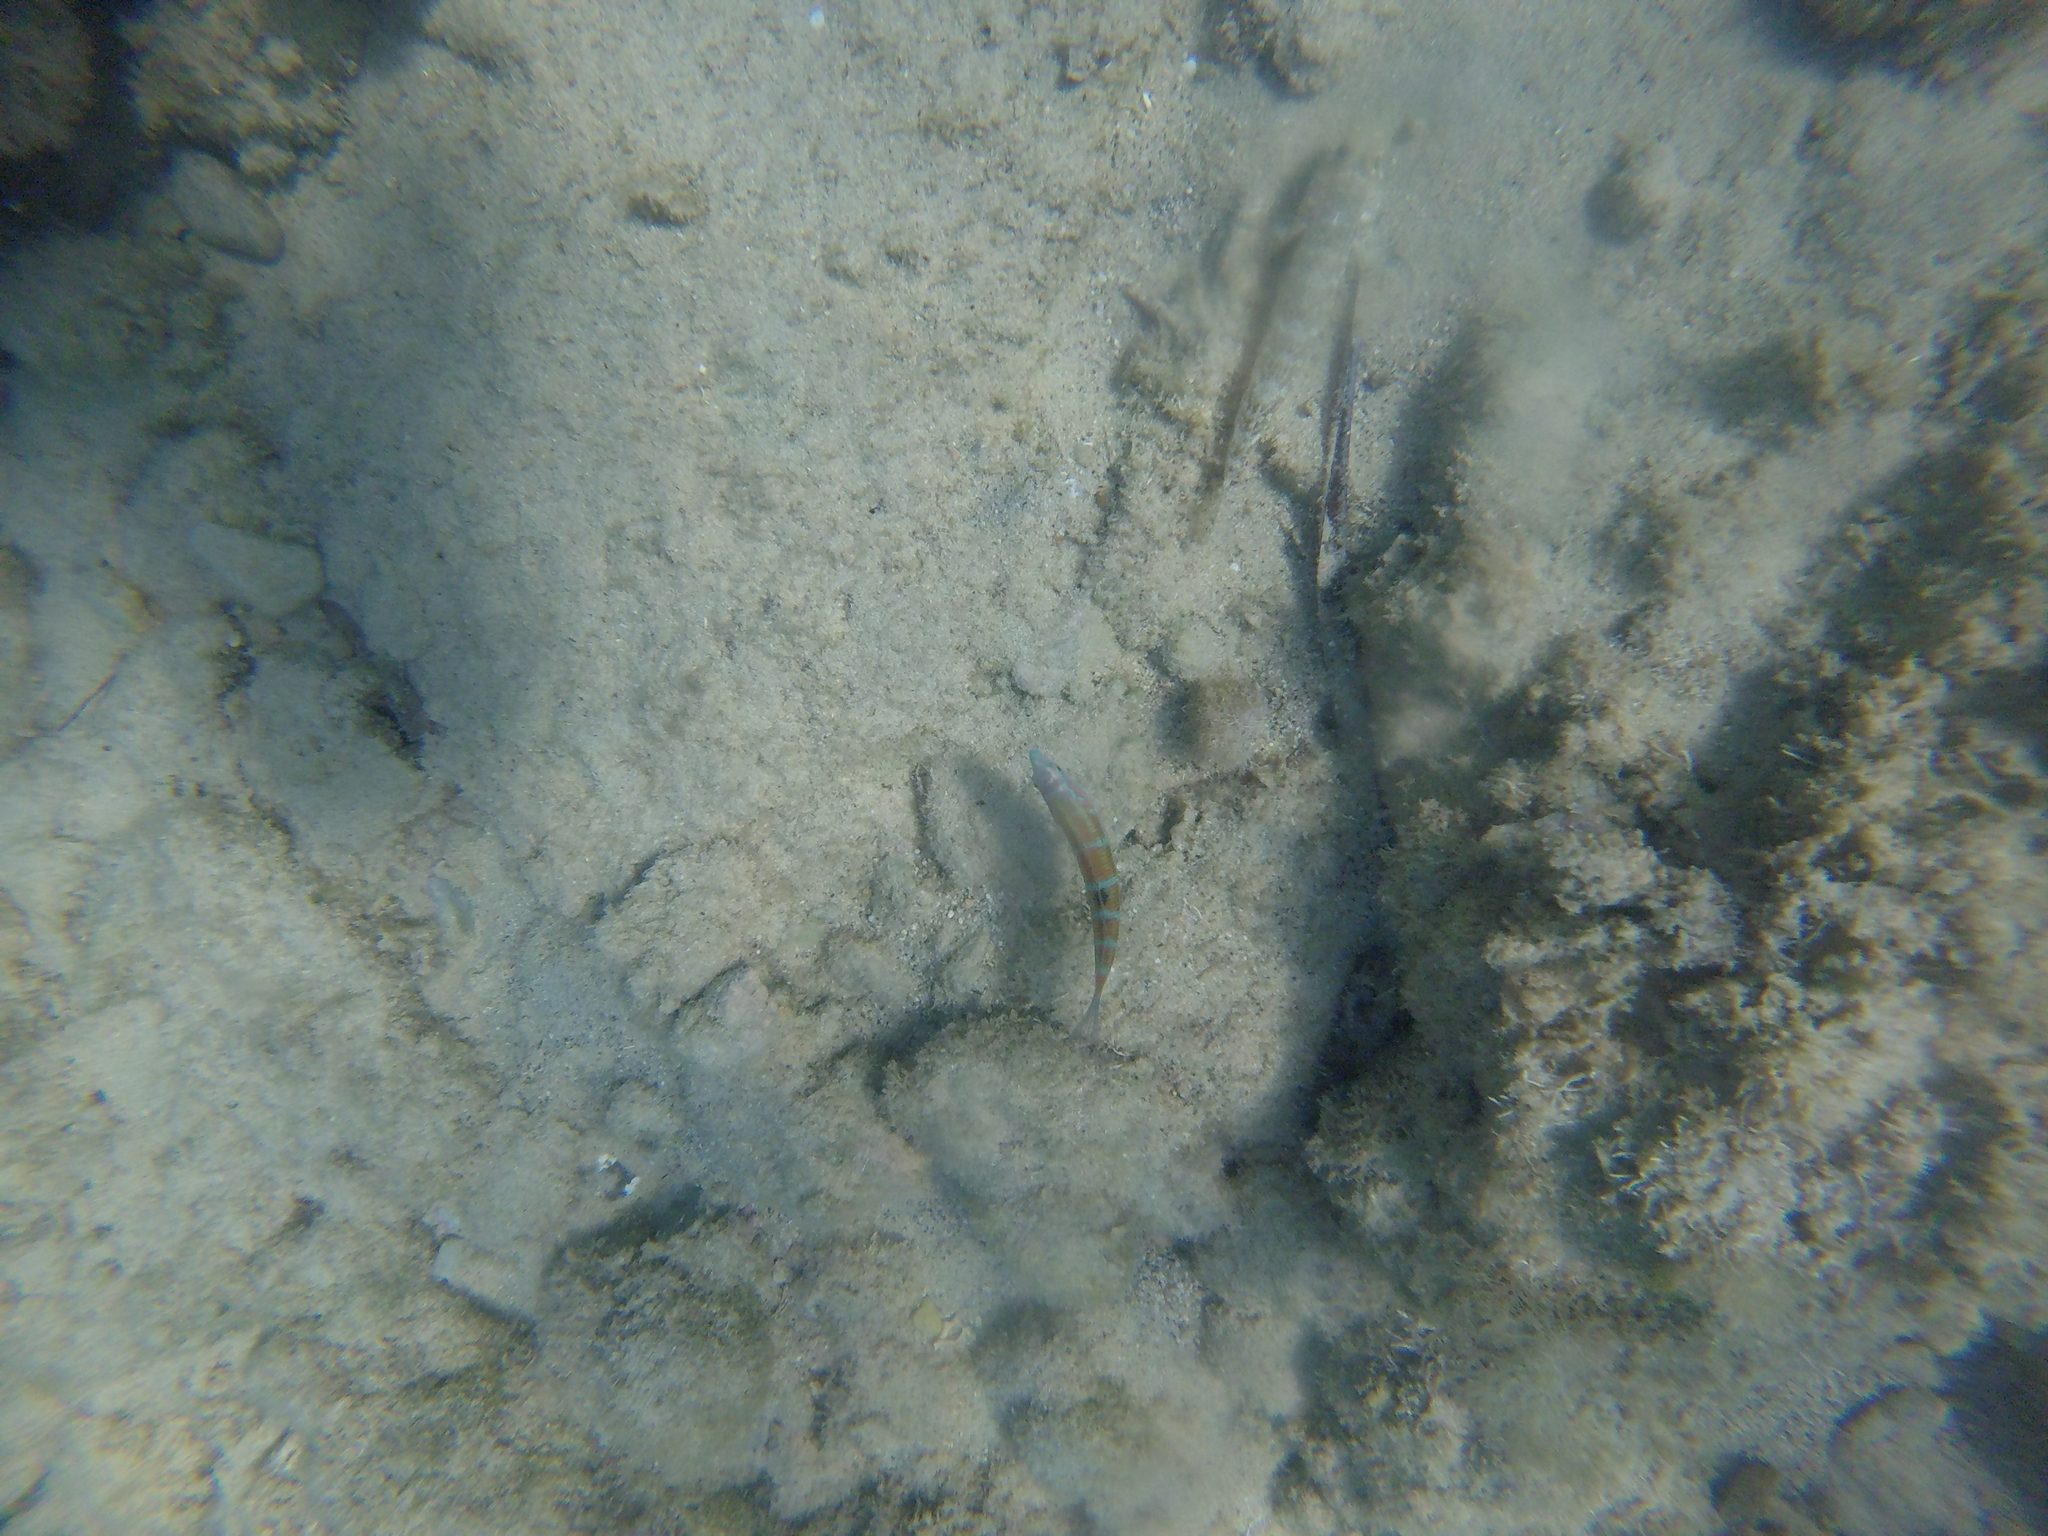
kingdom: Animalia
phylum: Chordata
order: Perciformes
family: Labridae
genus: Thalassoma
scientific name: Thalassoma pavo
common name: Ornate wrasse
